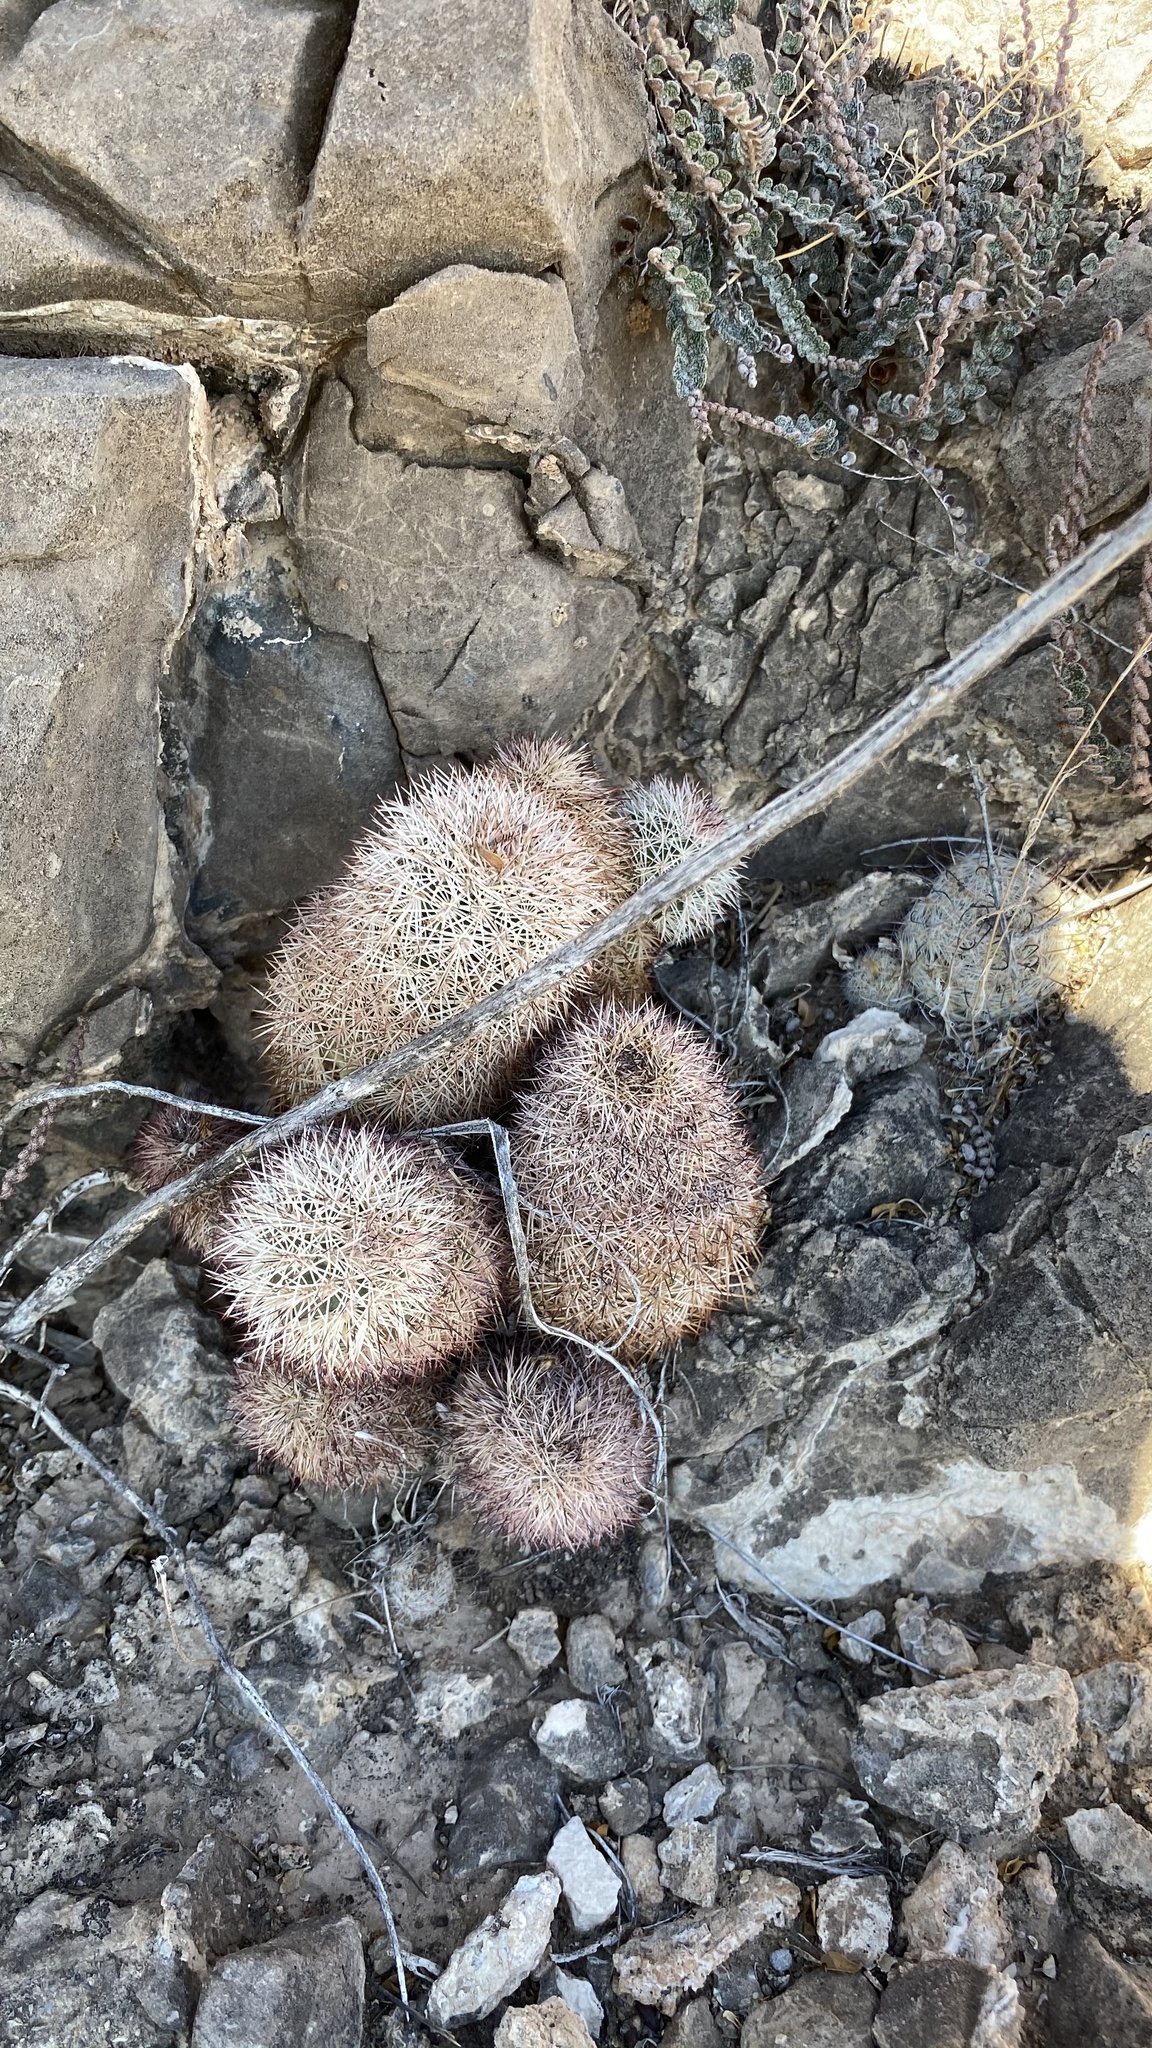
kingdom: Plantae
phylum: Tracheophyta
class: Magnoliopsida
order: Caryophyllales
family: Cactaceae
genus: Echinocereus
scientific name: Echinocereus dasyacanthus
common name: Spiny hedgehog cactus
